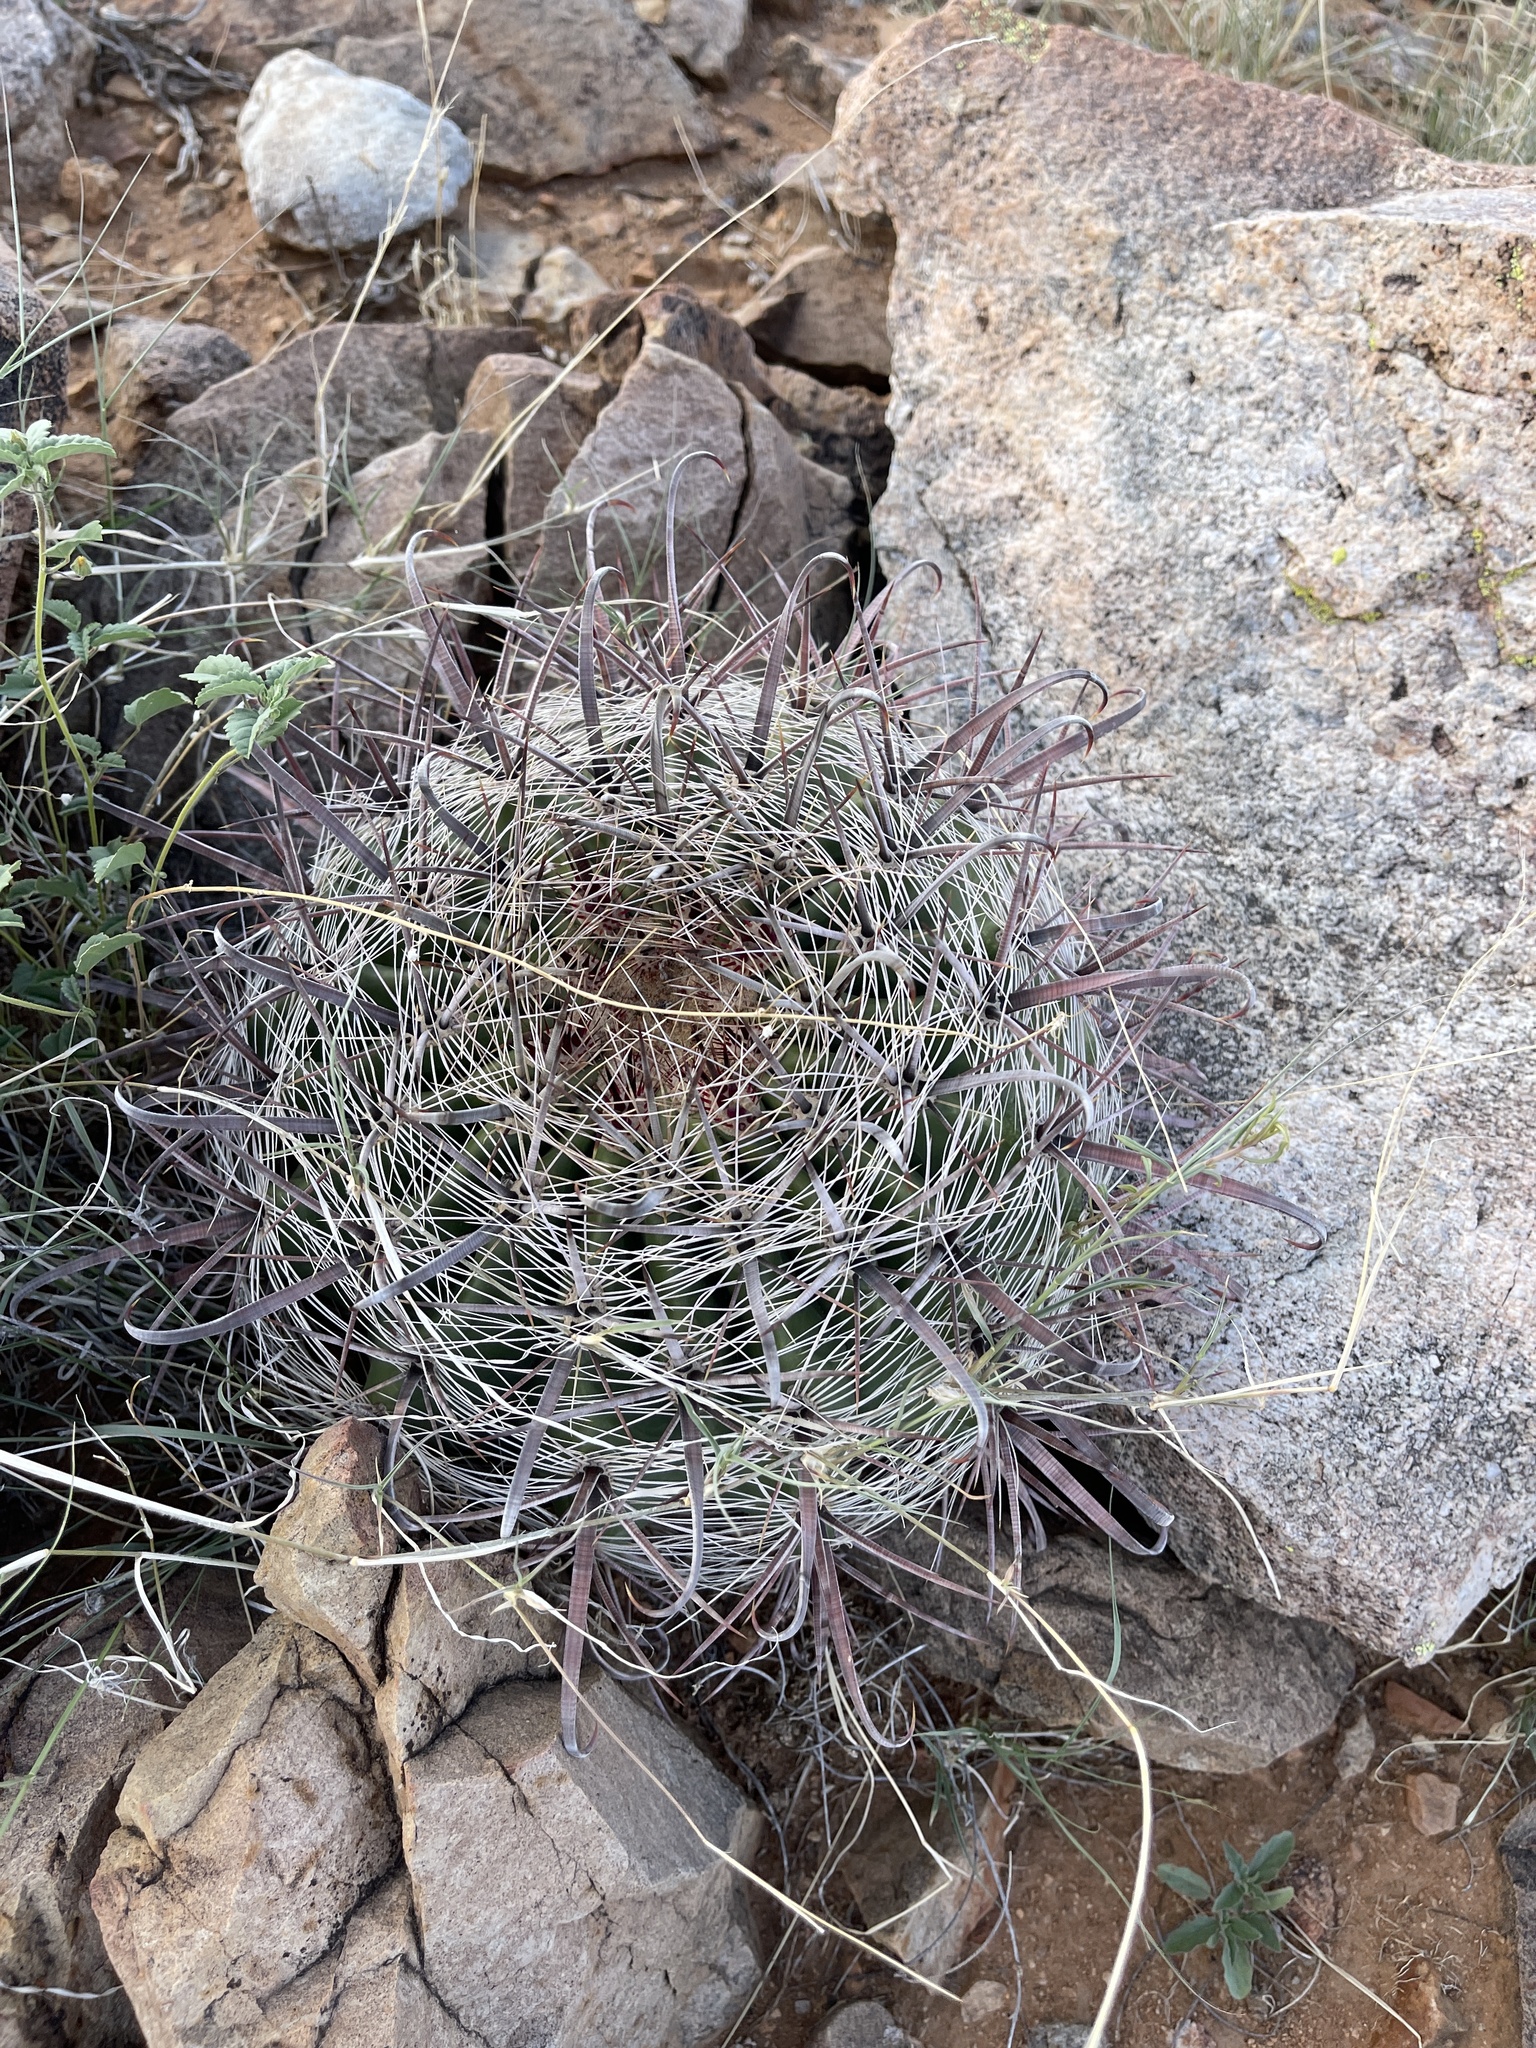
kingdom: Plantae
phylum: Tracheophyta
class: Magnoliopsida
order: Caryophyllales
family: Cactaceae
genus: Ferocactus
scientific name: Ferocactus wislizeni
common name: Candy barrel cactus
